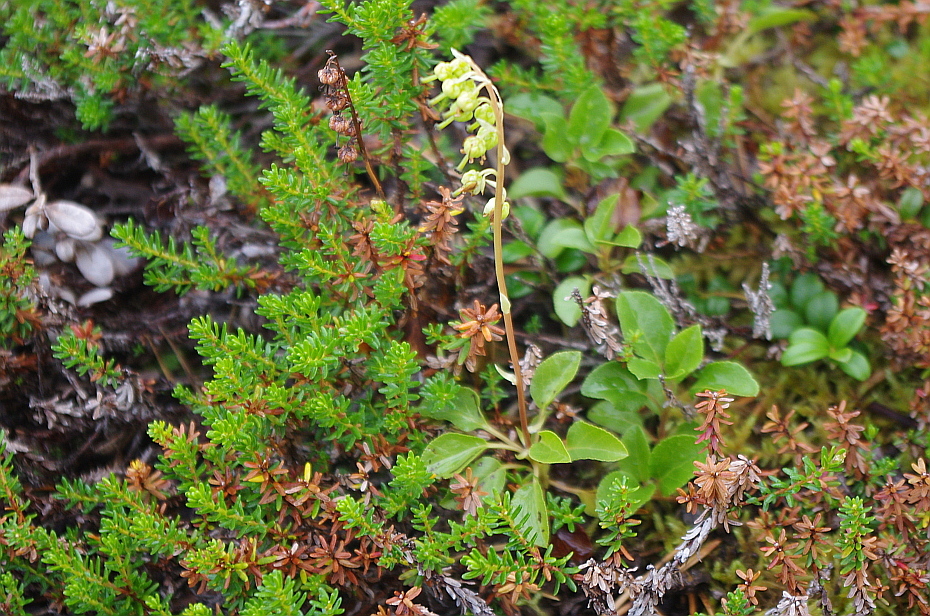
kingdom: Plantae
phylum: Tracheophyta
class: Magnoliopsida
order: Ericales
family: Ericaceae
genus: Orthilia
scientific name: Orthilia secunda
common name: One-sided orthilia
